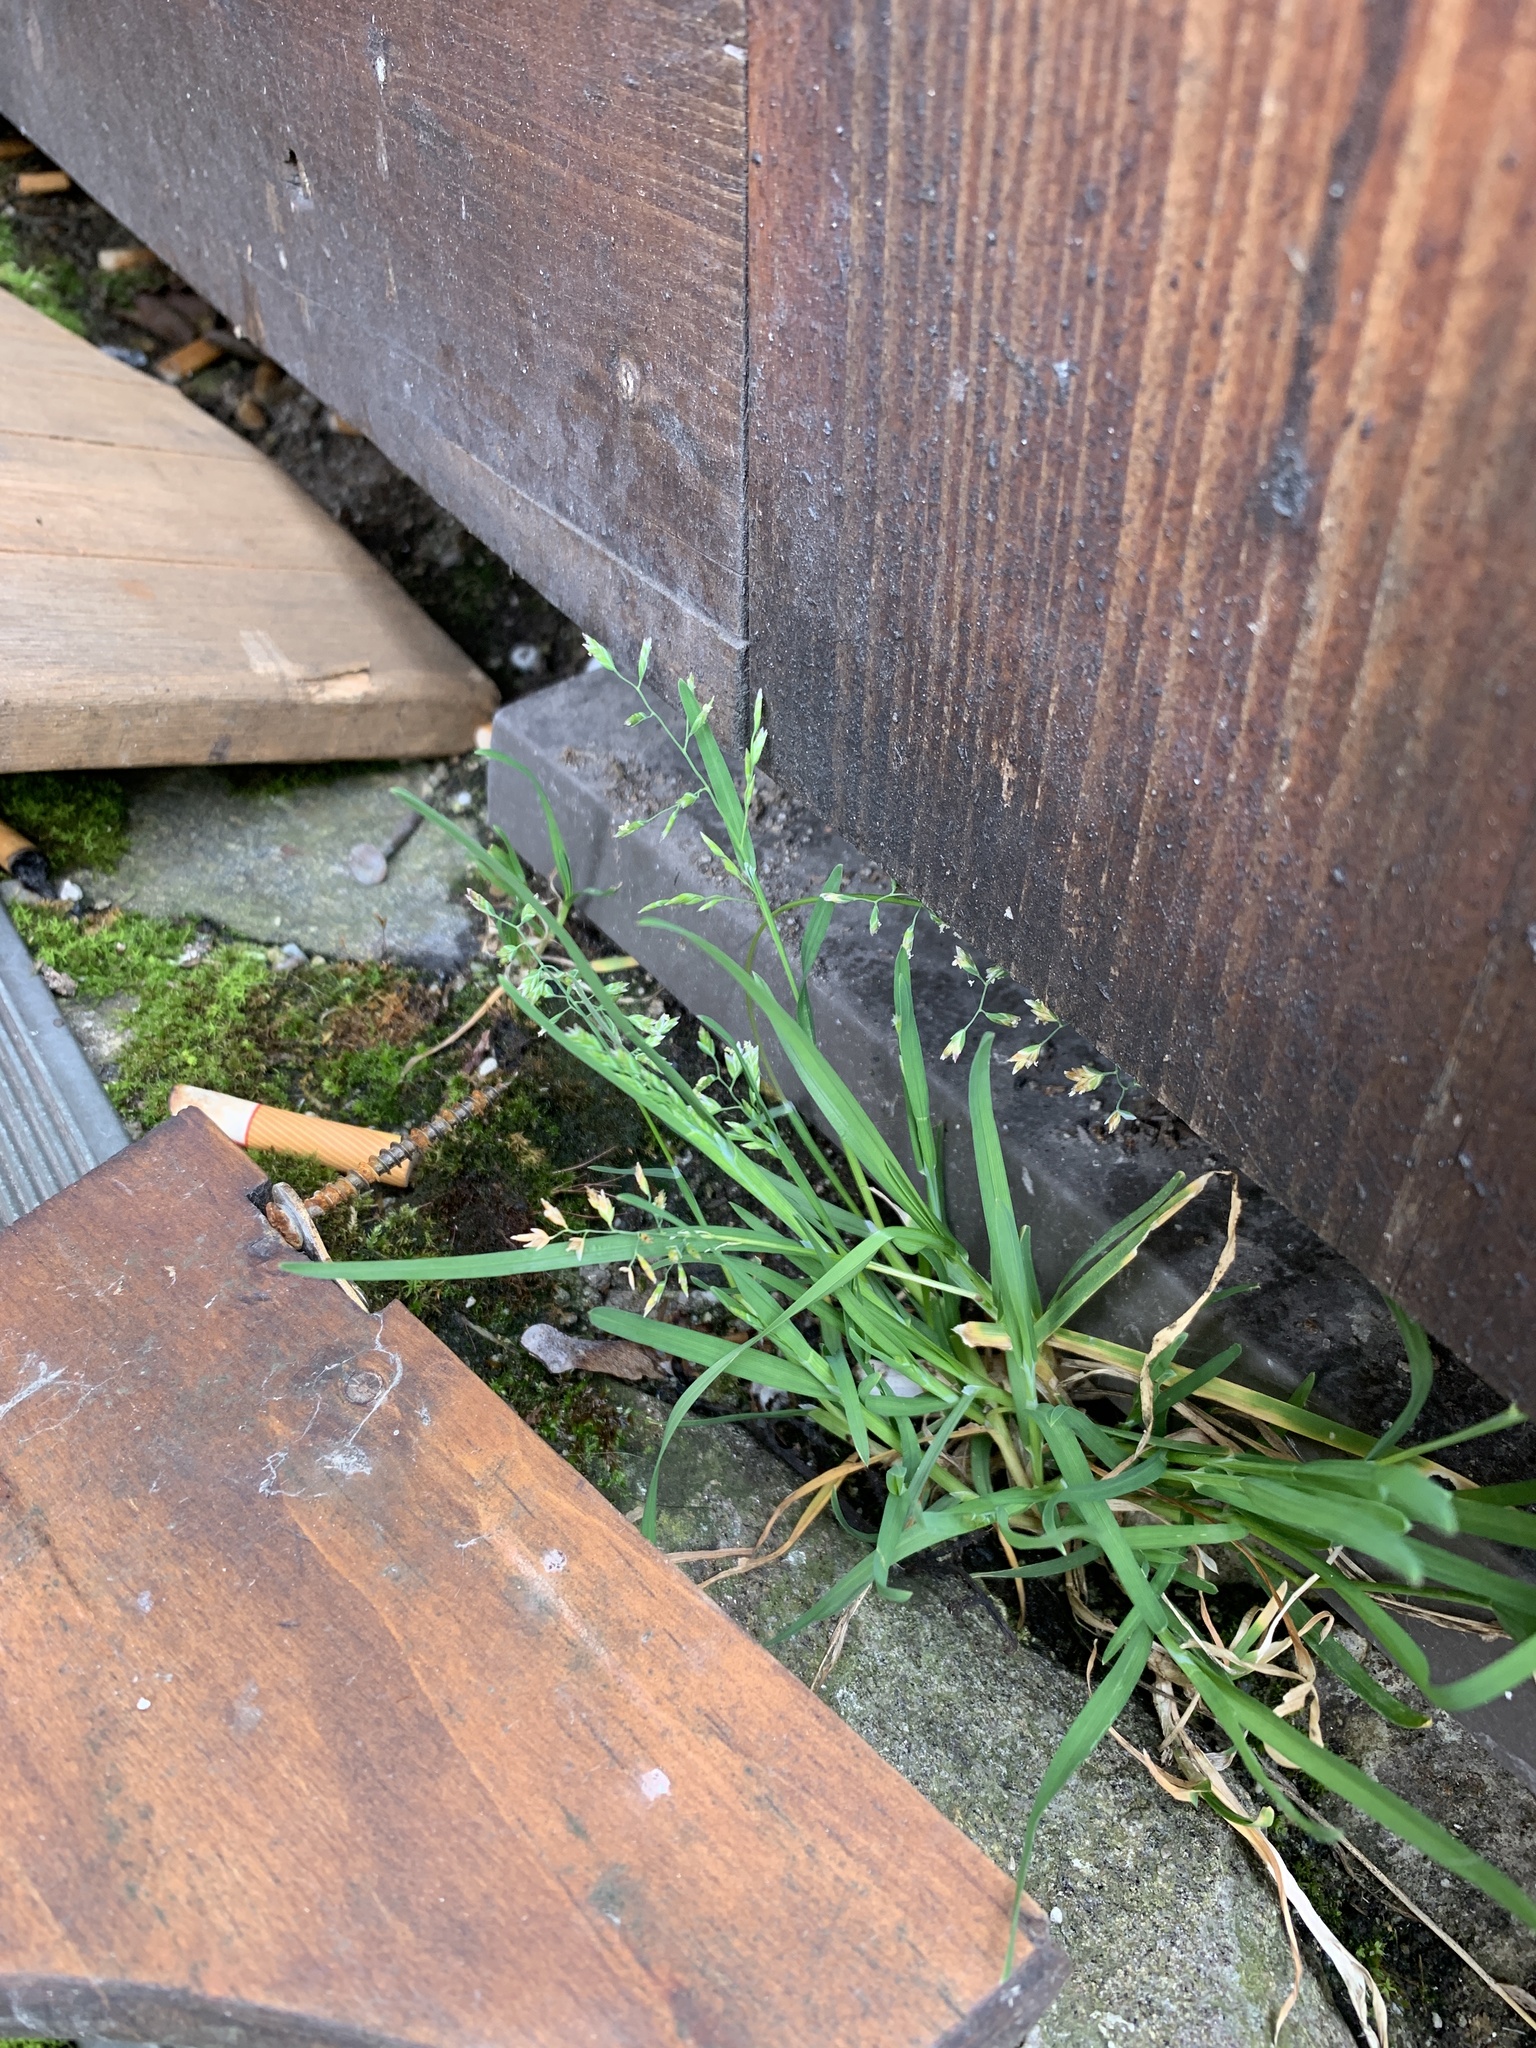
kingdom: Plantae
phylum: Tracheophyta
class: Liliopsida
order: Poales
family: Poaceae
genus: Poa
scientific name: Poa annua
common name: Annual bluegrass
